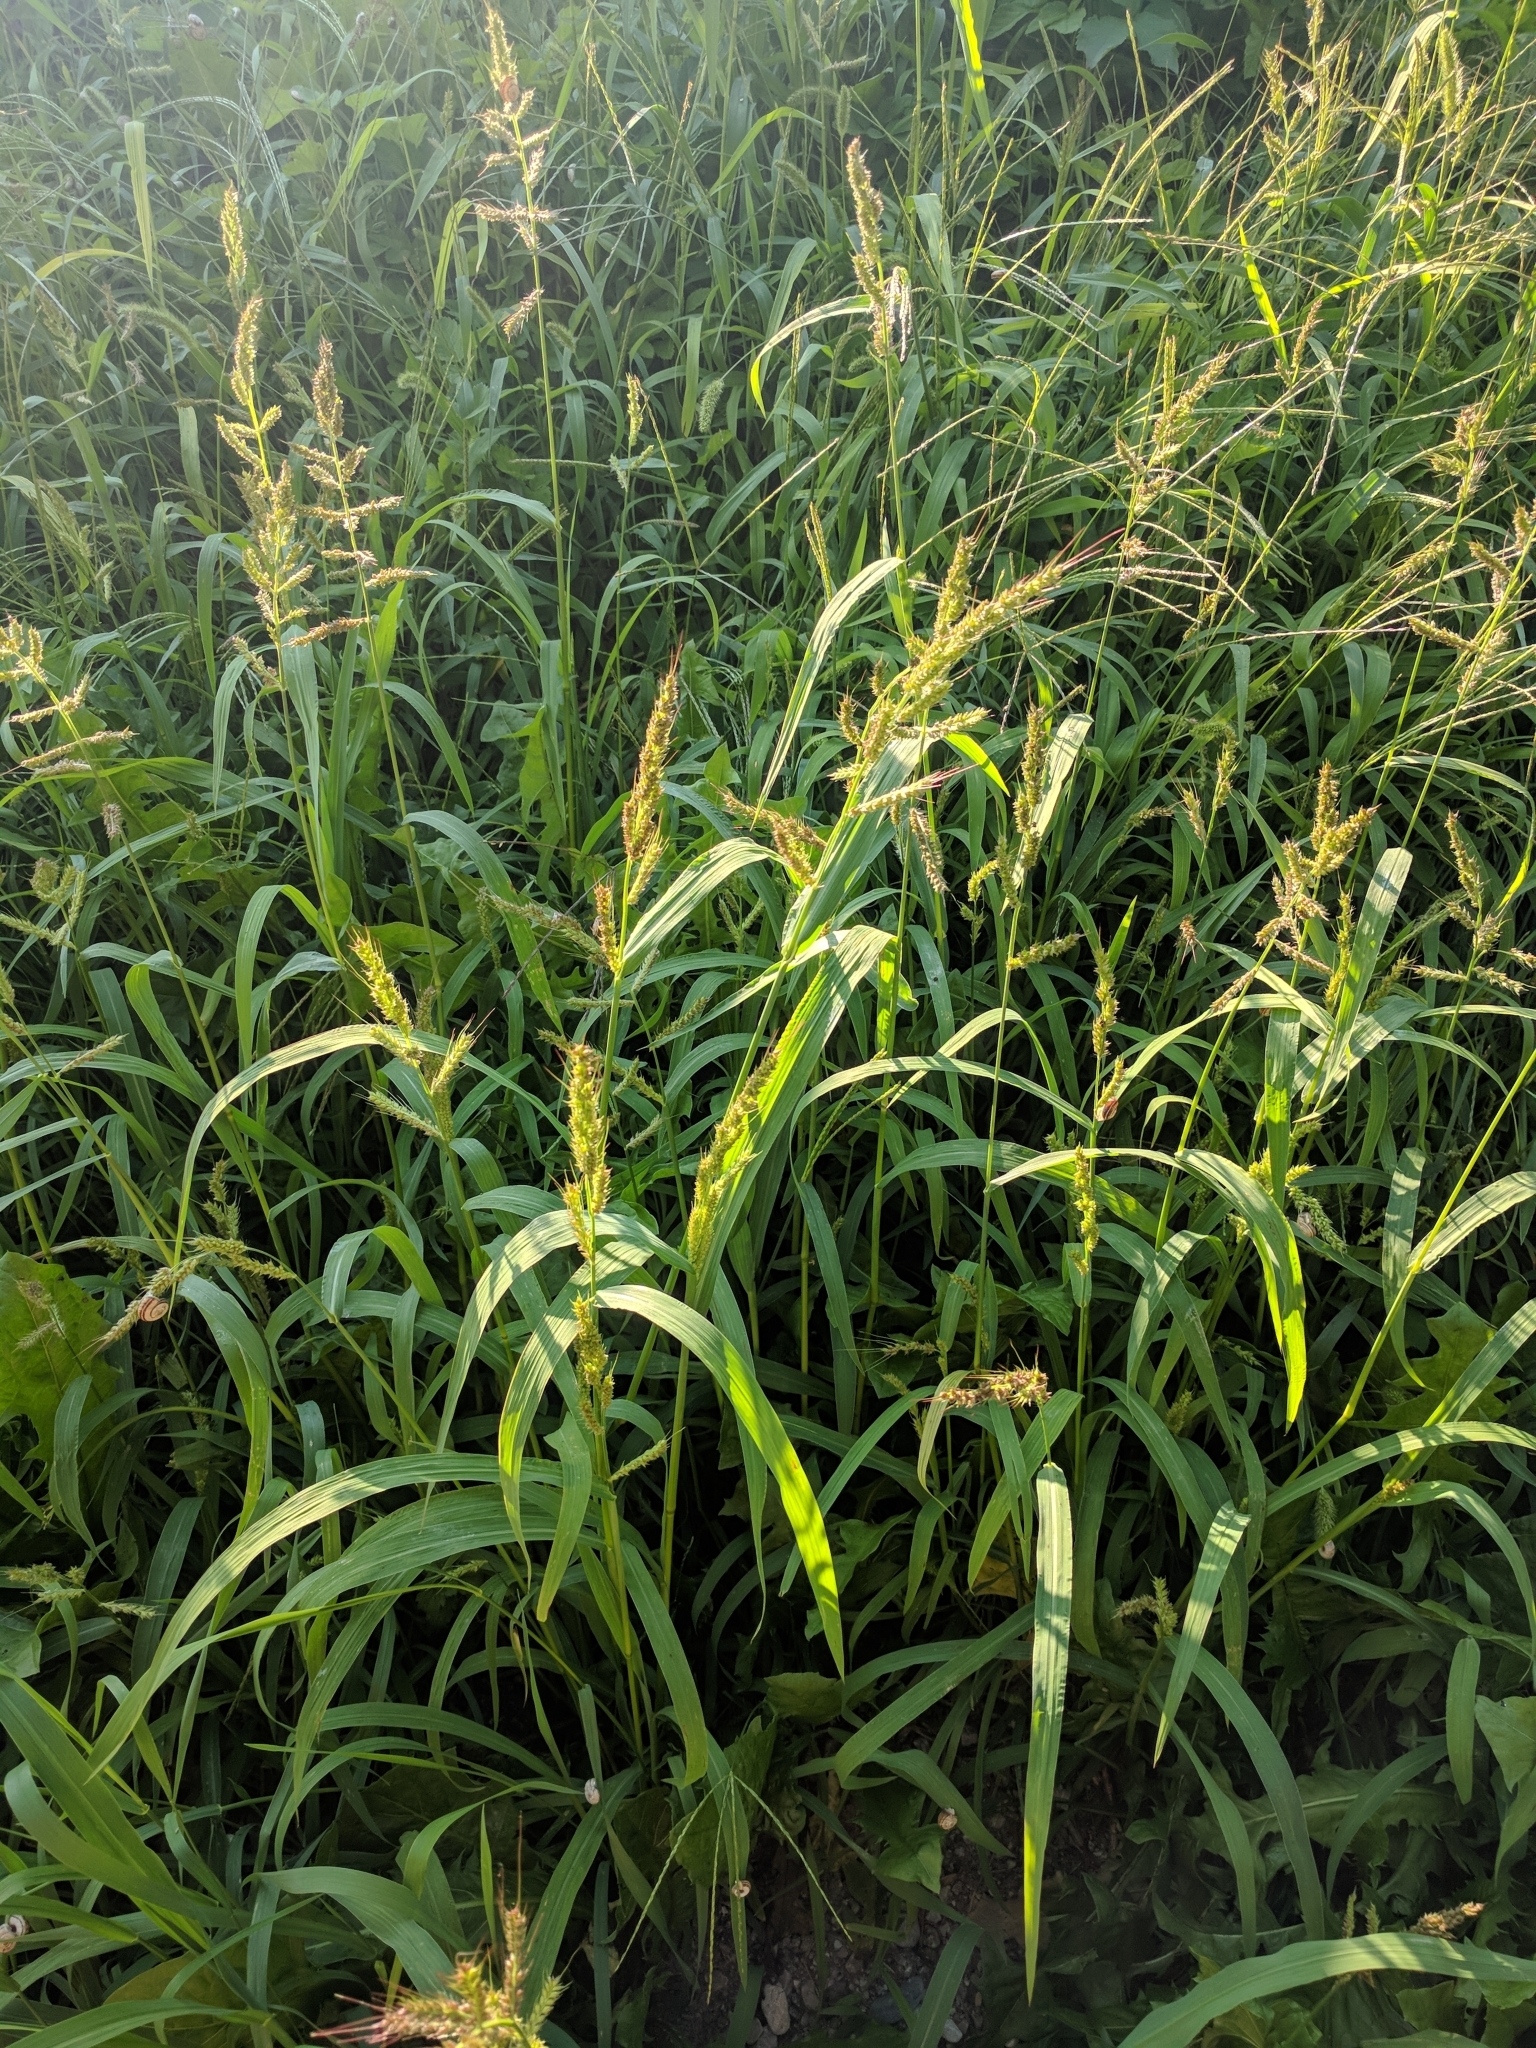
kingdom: Plantae
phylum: Tracheophyta
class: Liliopsida
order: Poales
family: Poaceae
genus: Echinochloa
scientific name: Echinochloa crus-galli
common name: Cockspur
